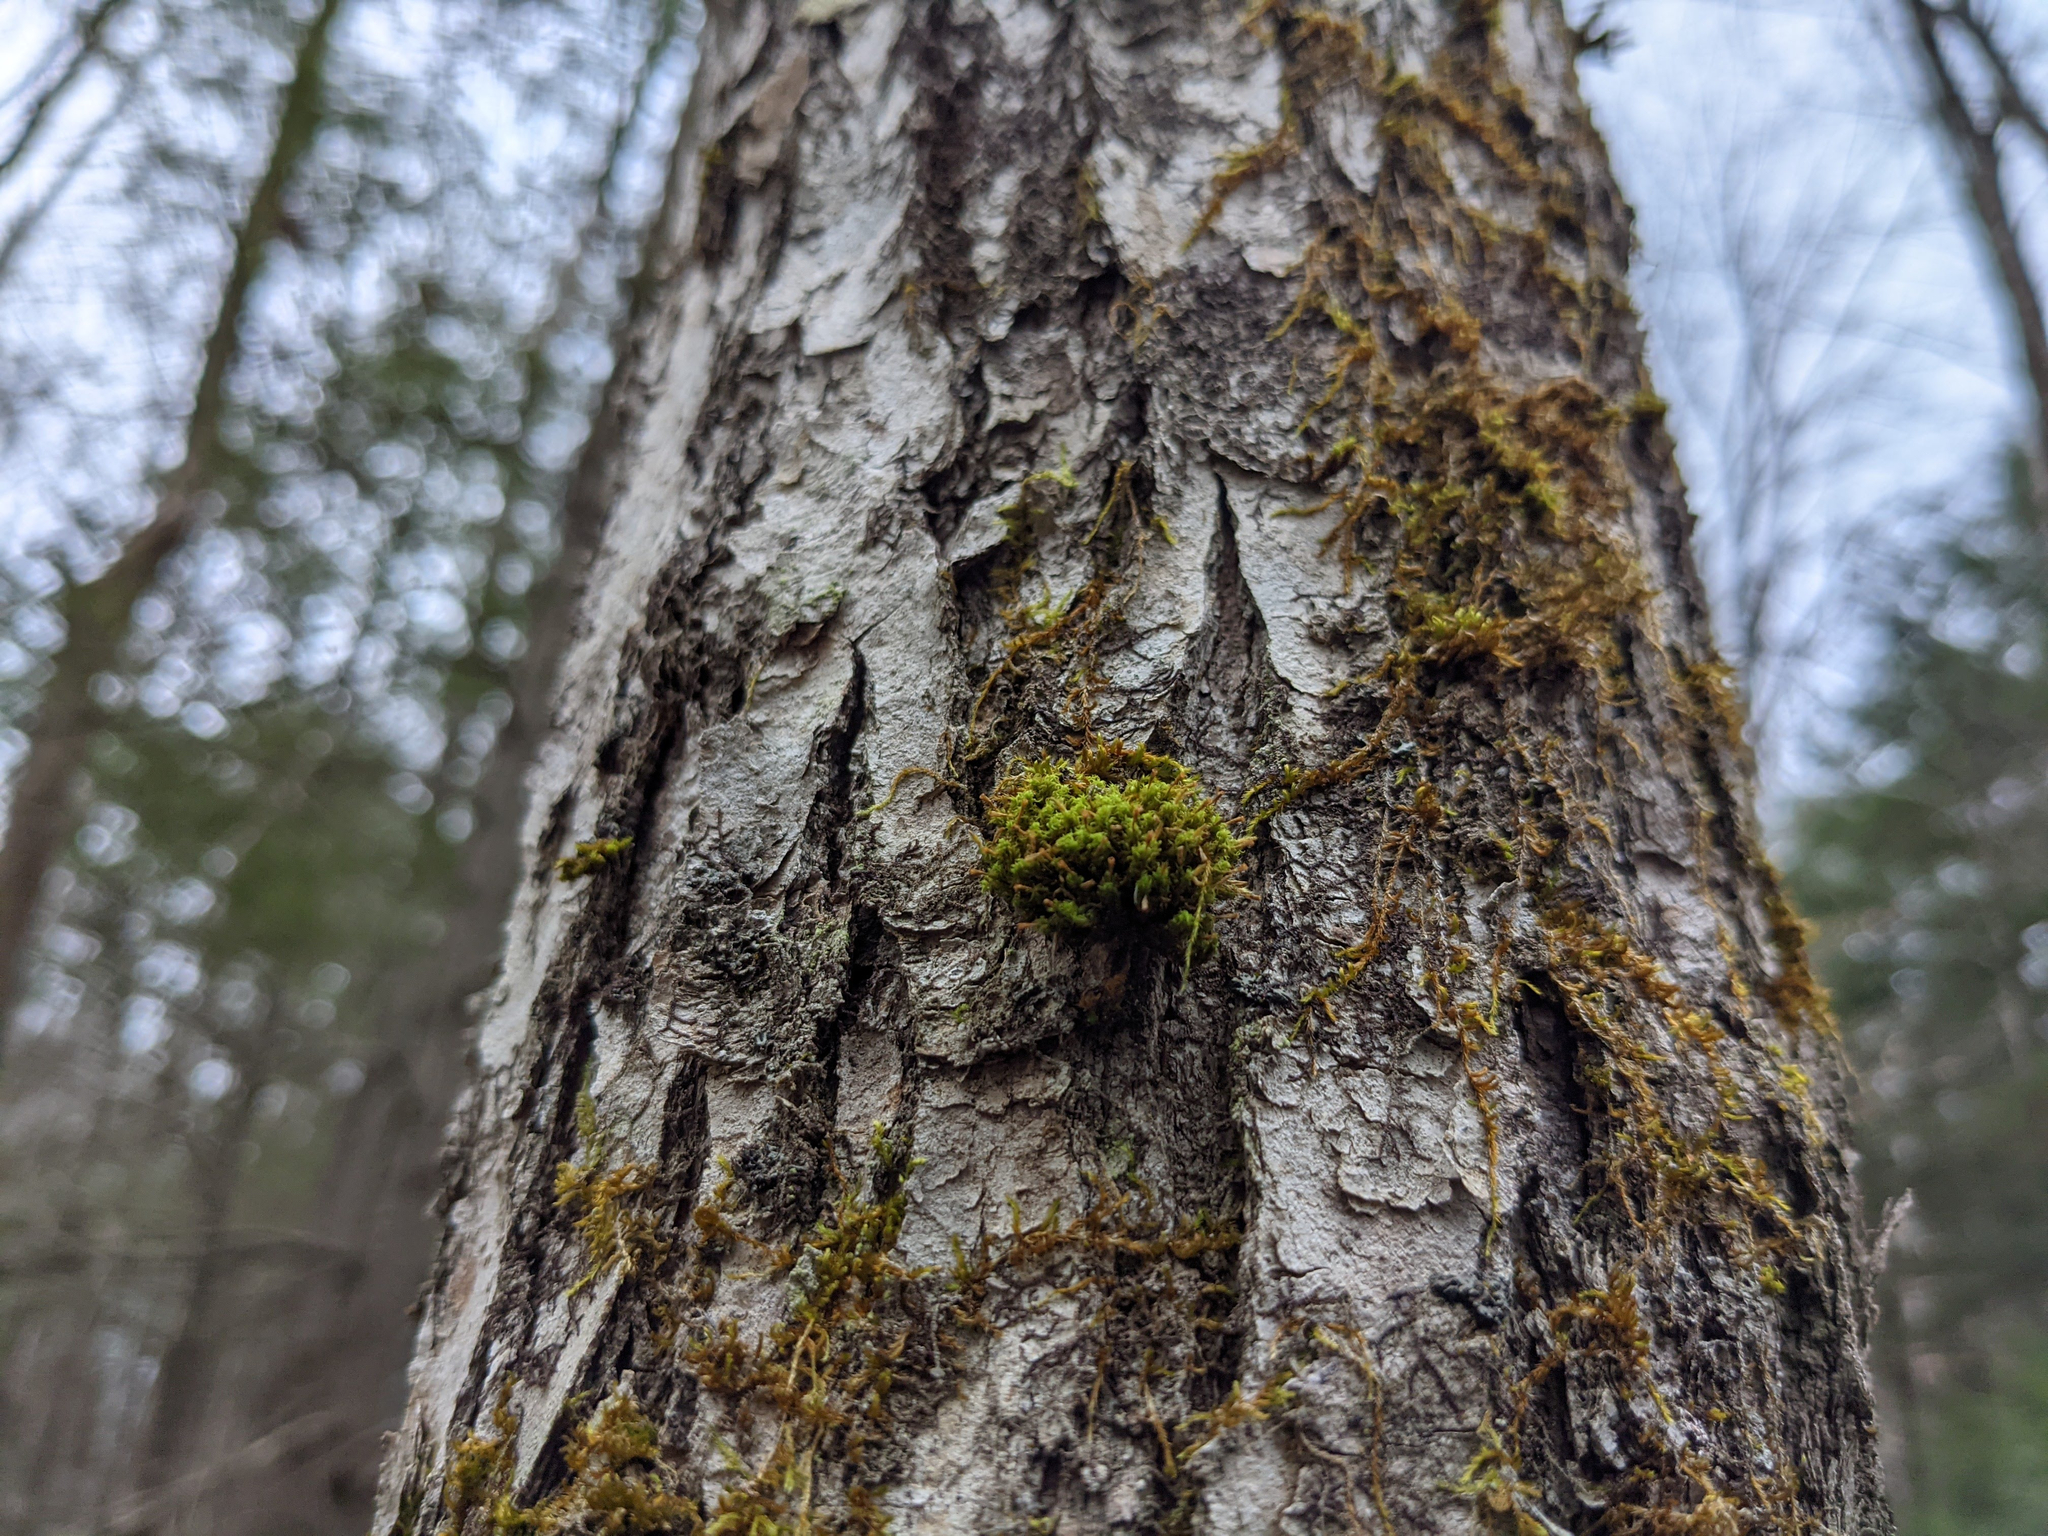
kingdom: Plantae
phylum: Bryophyta
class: Bryopsida
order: Orthotrichales
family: Orthotrichaceae
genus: Ulota
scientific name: Ulota crispa
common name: Crisped pincushion moss
